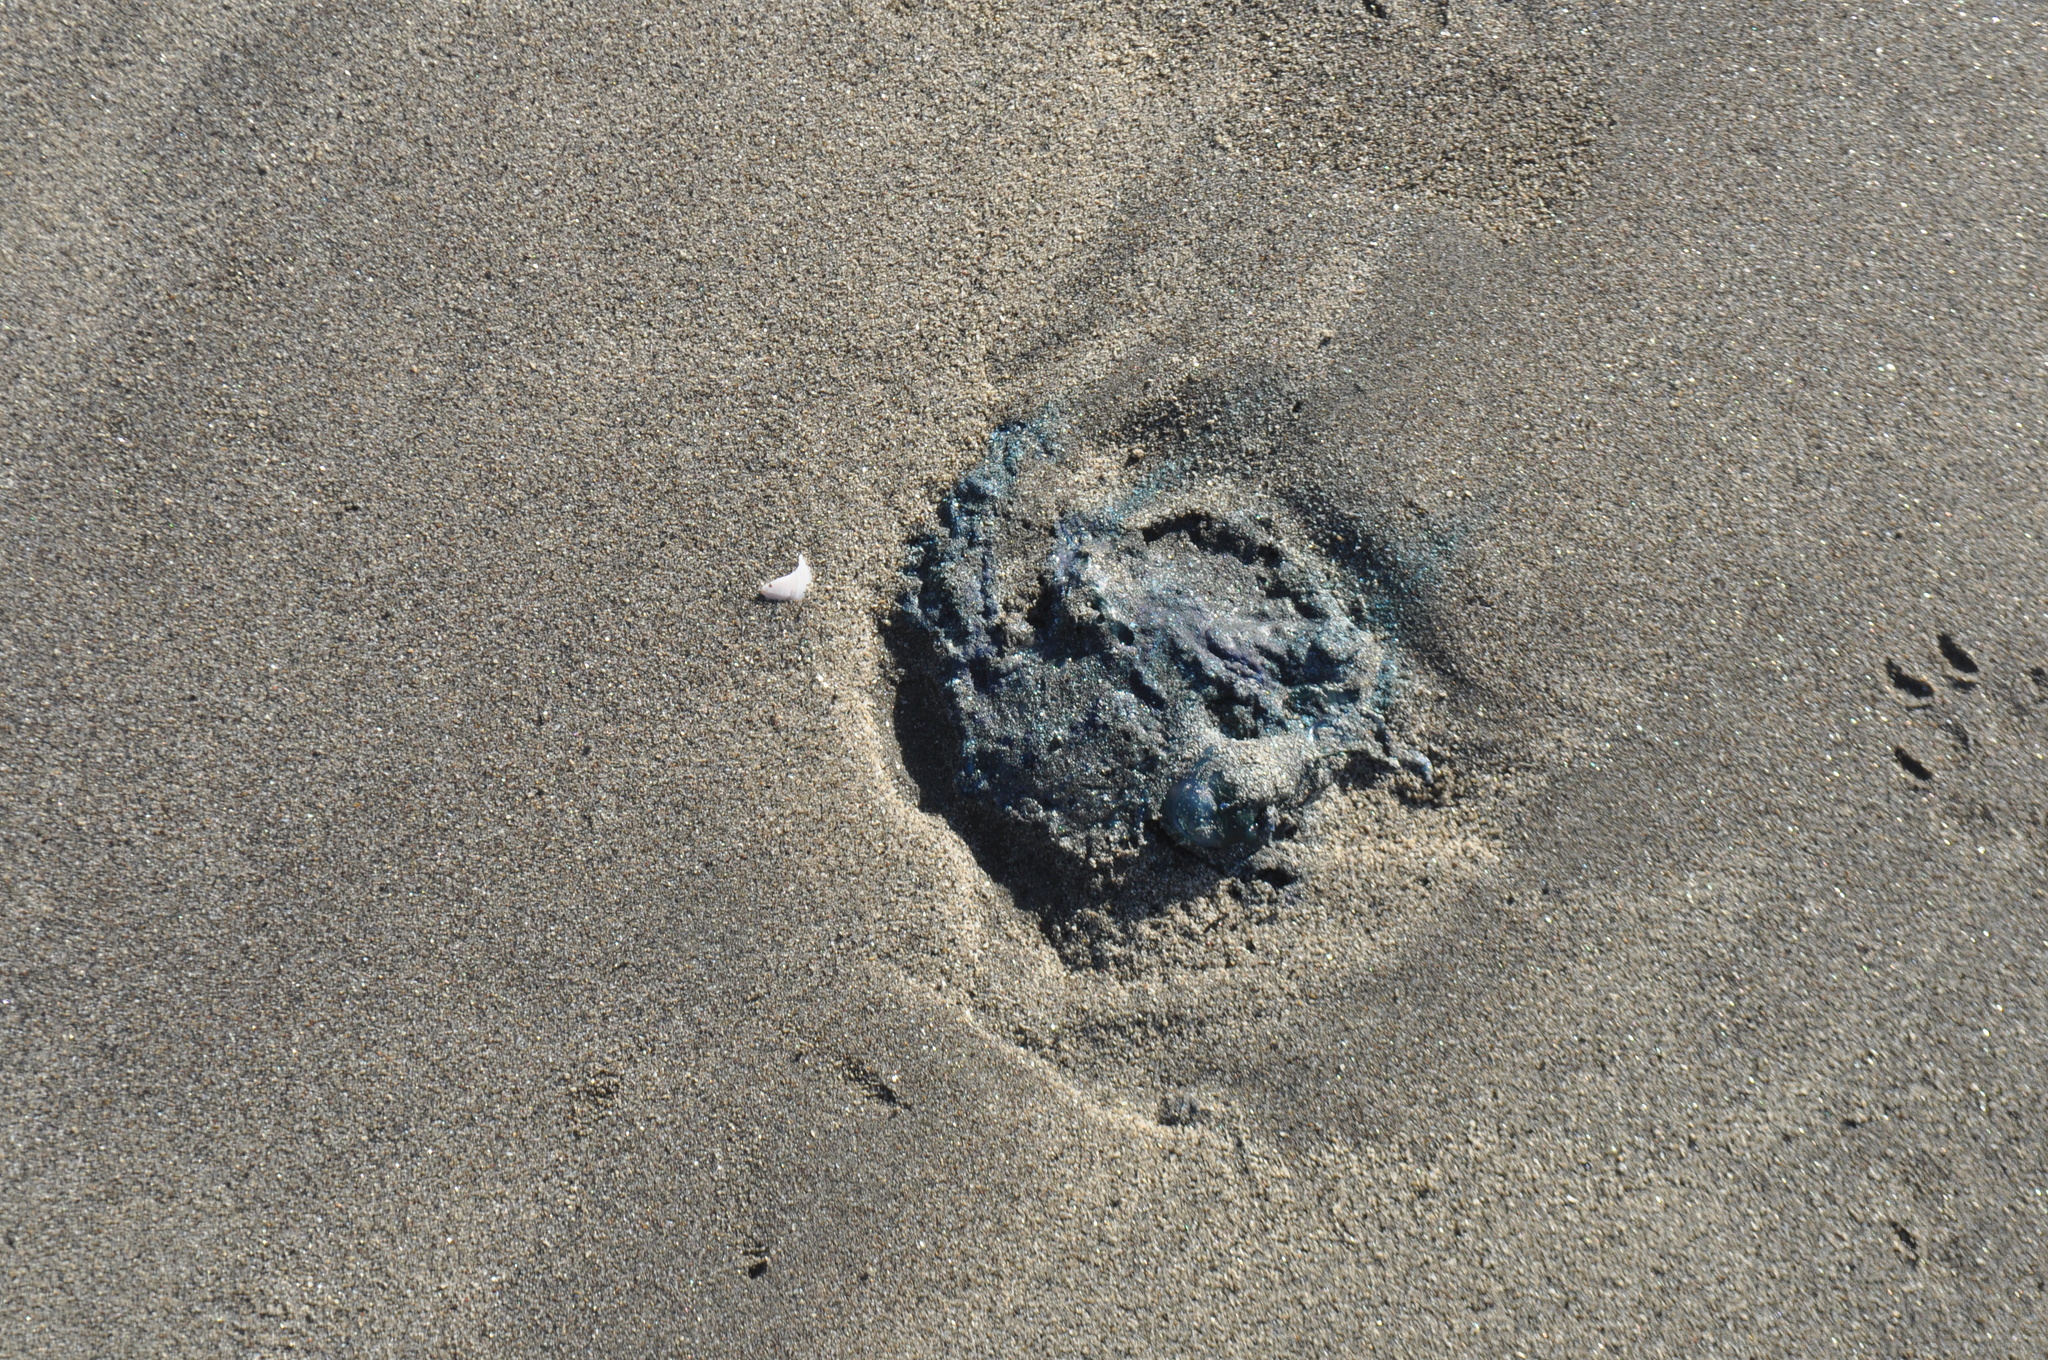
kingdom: Animalia
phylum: Cnidaria
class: Hydrozoa
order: Siphonophorae
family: Physaliidae
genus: Physalia
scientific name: Physalia physalis
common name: Portuguese man-of-war
